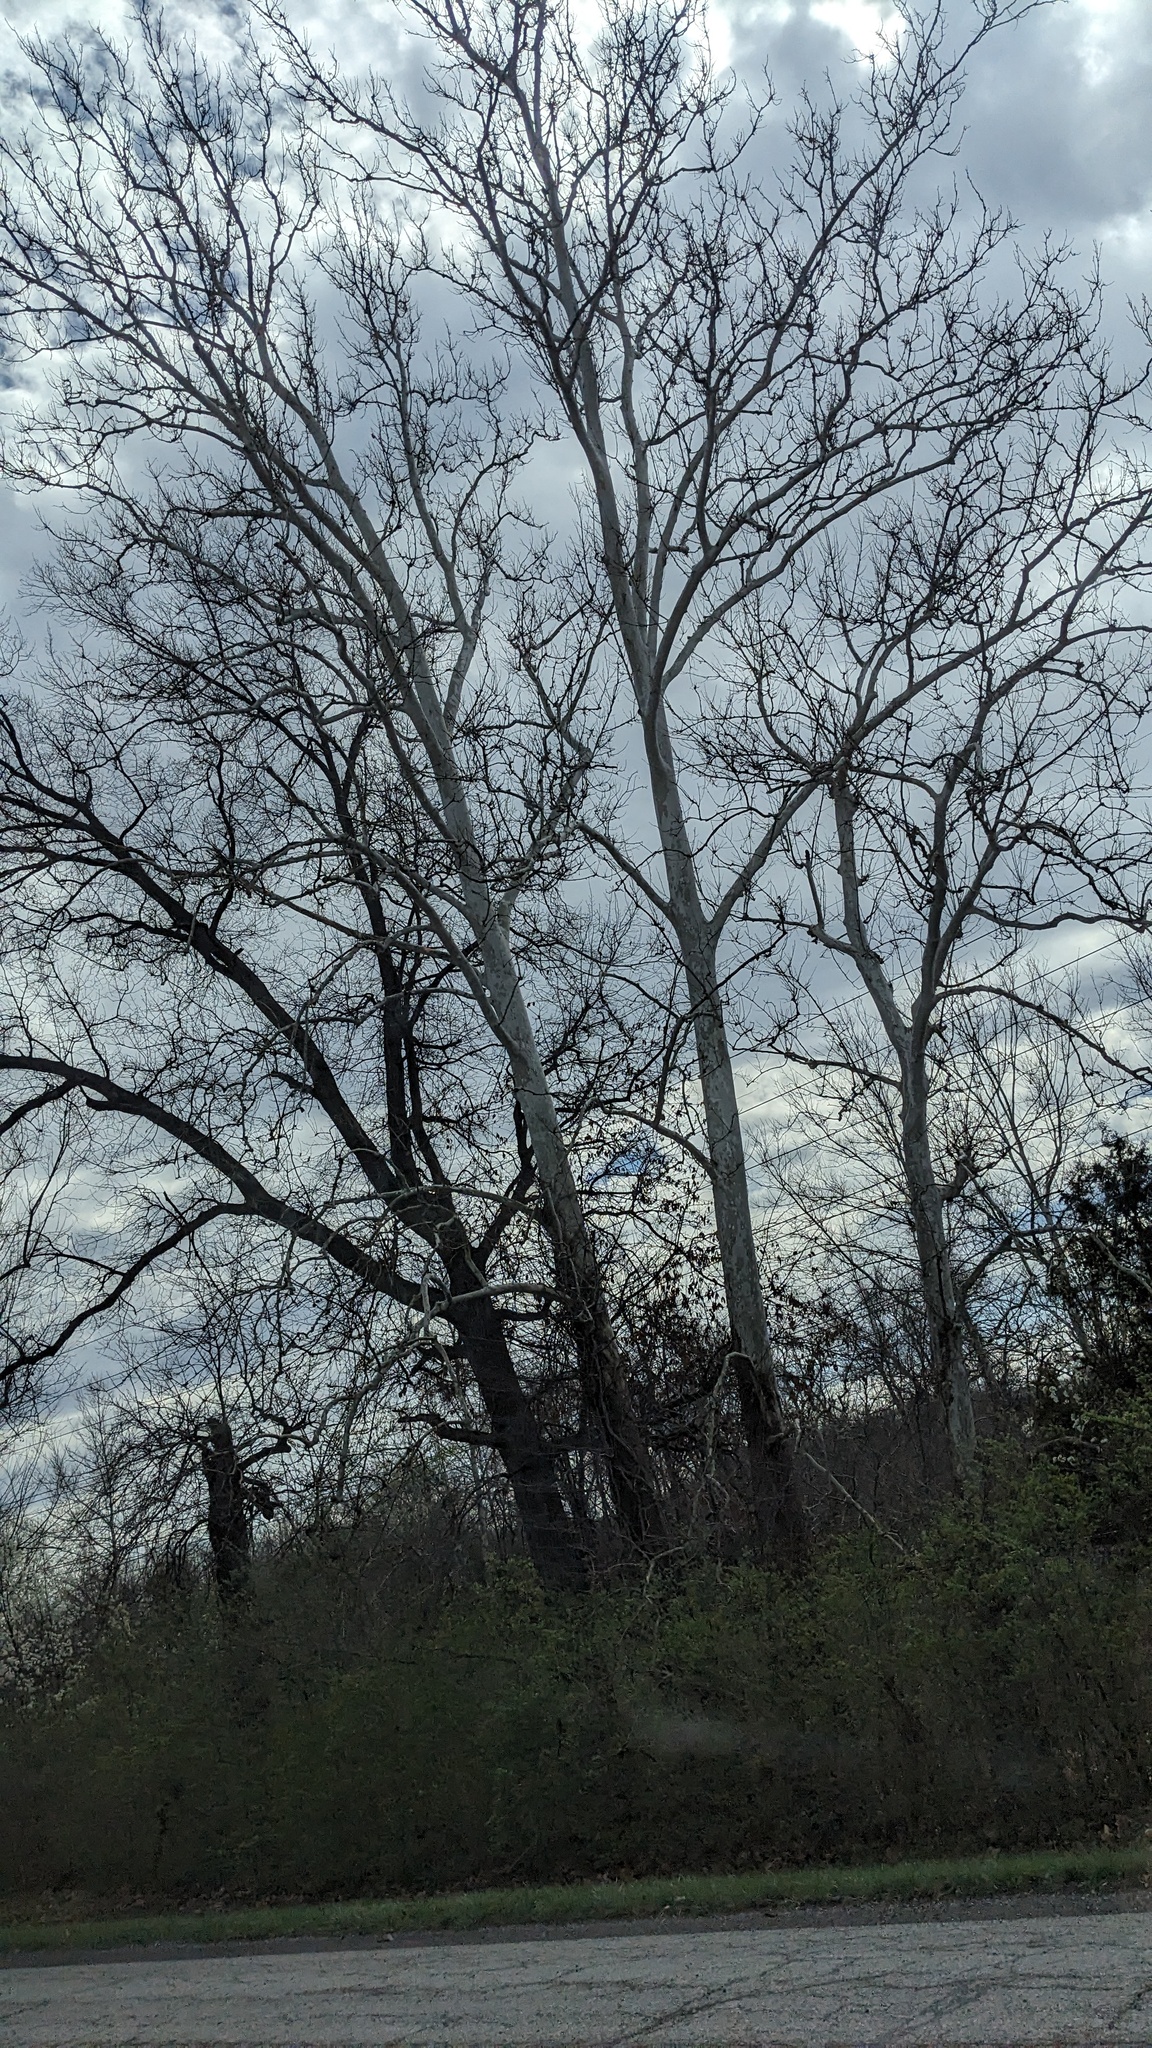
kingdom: Plantae
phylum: Tracheophyta
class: Magnoliopsida
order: Proteales
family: Platanaceae
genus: Platanus
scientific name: Platanus occidentalis
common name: American sycamore
